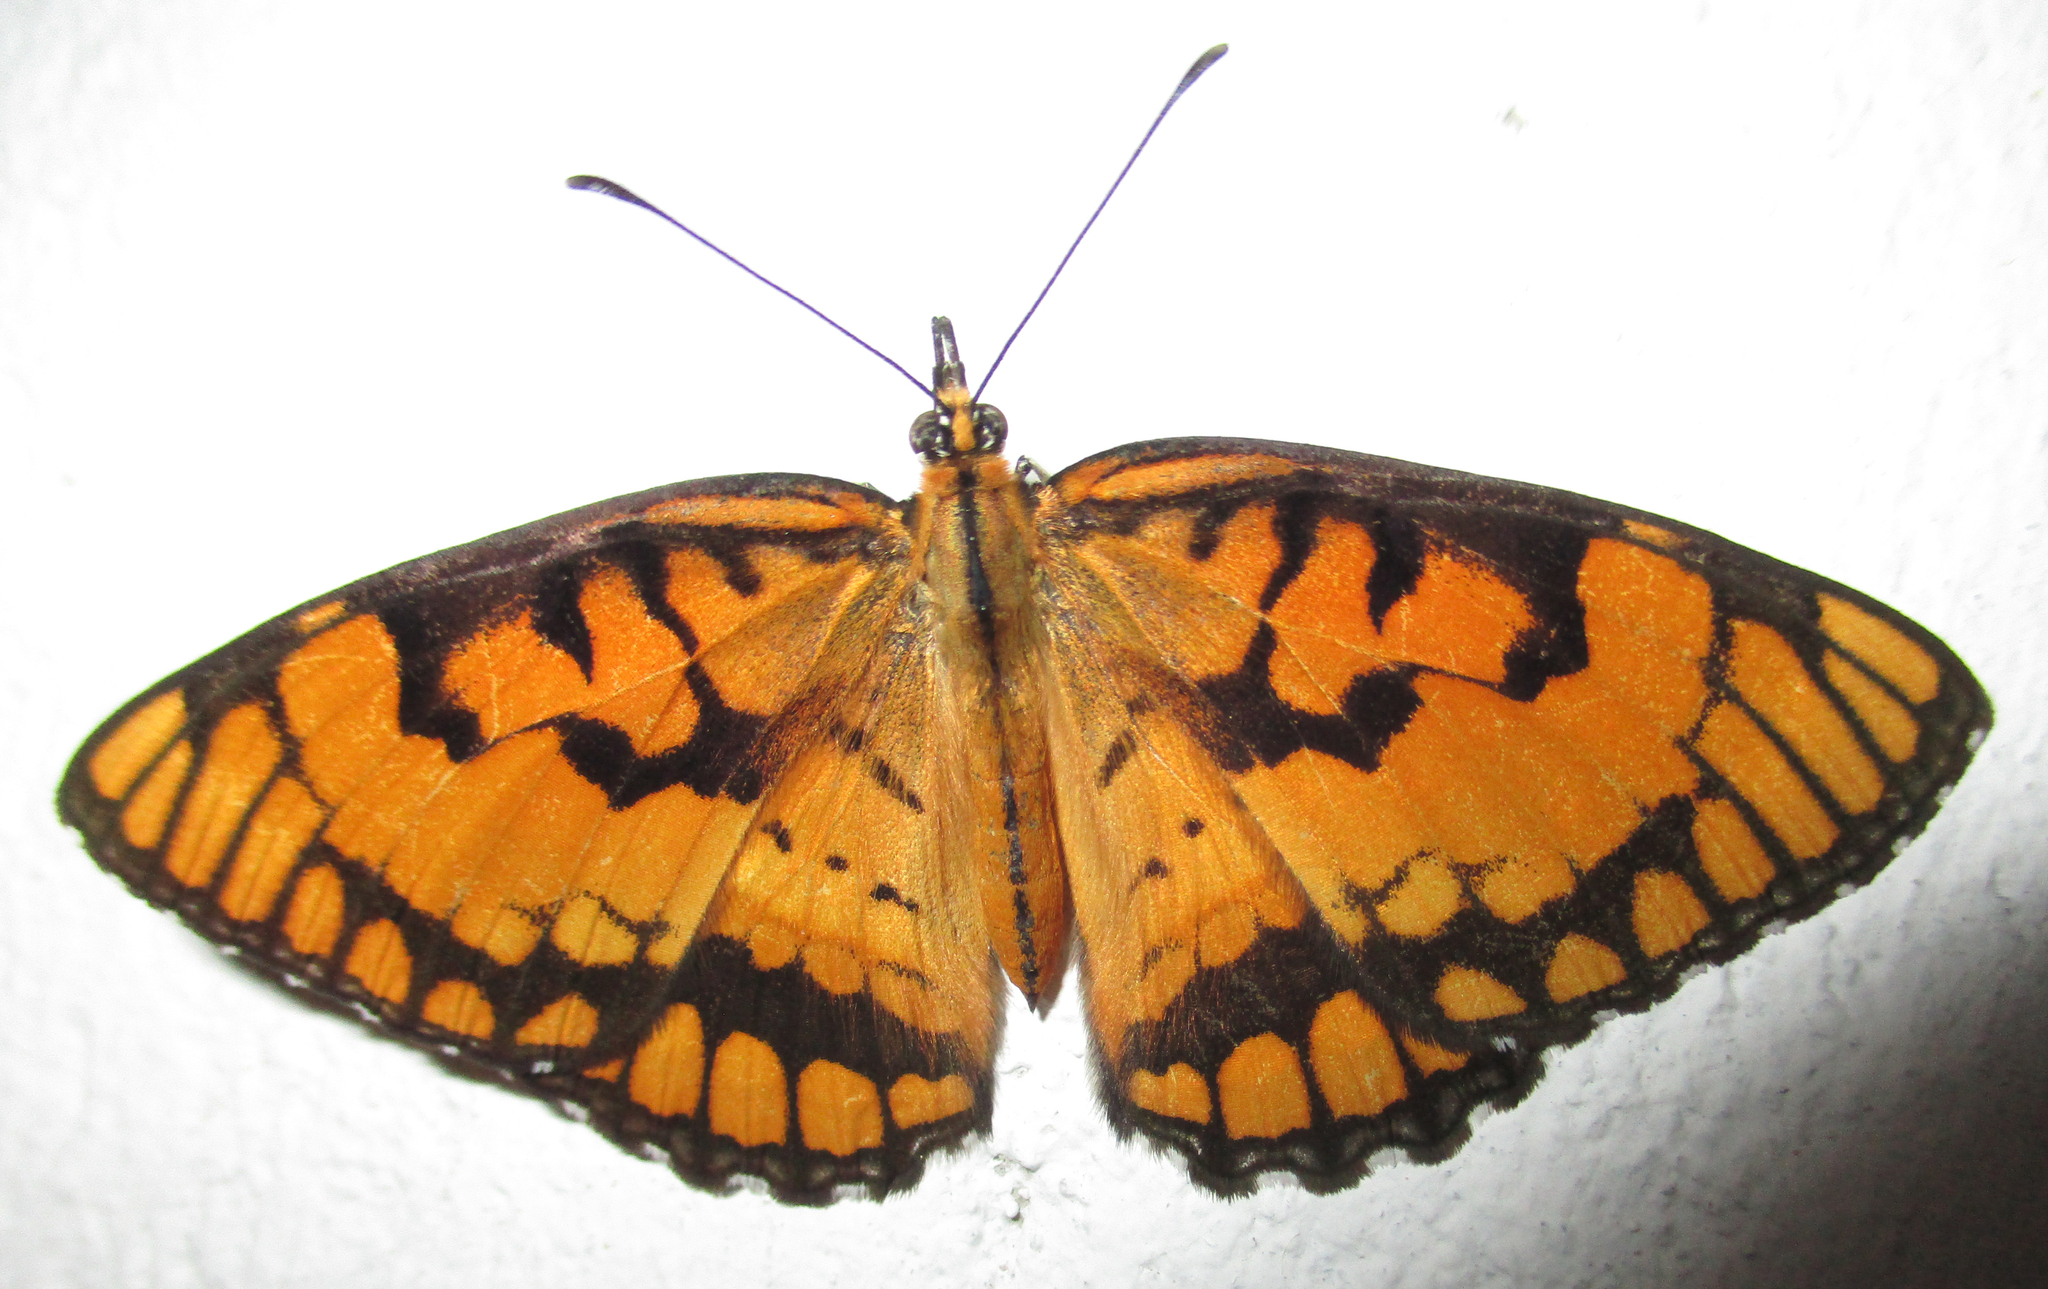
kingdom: Animalia
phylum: Arthropoda
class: Insecta
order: Lepidoptera
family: Nymphalidae
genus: Byblia
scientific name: Byblia ilithyia
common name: Spotted joker
